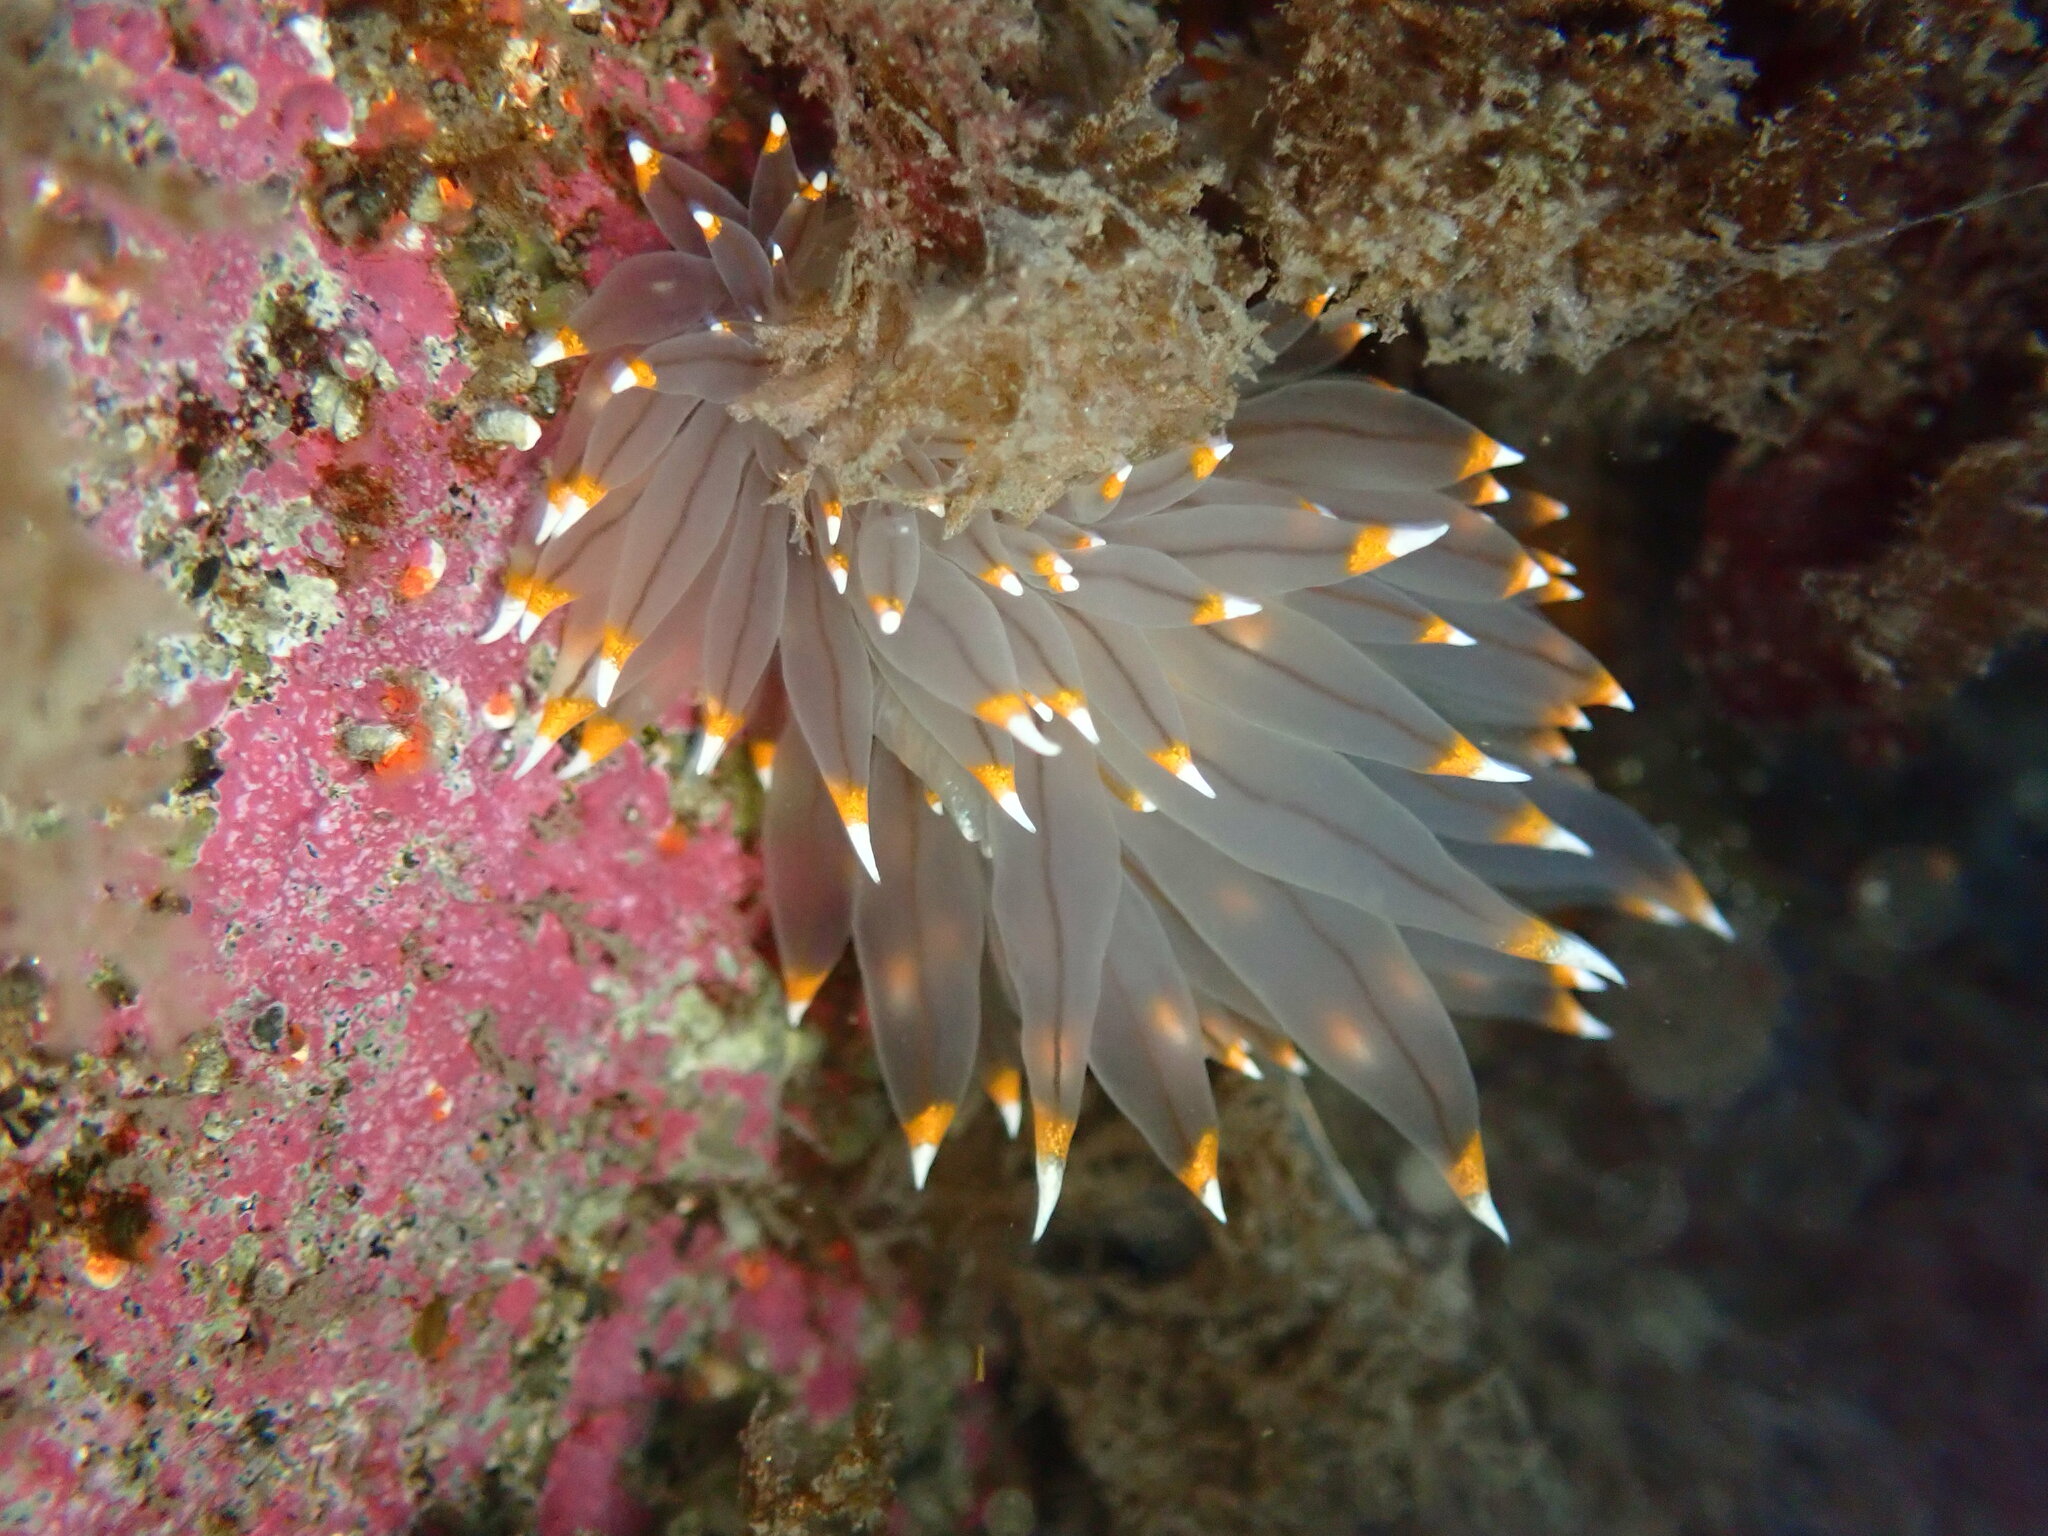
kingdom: Animalia
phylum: Mollusca
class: Gastropoda
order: Nudibranchia
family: Janolidae
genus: Antiopella
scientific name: Antiopella fusca
